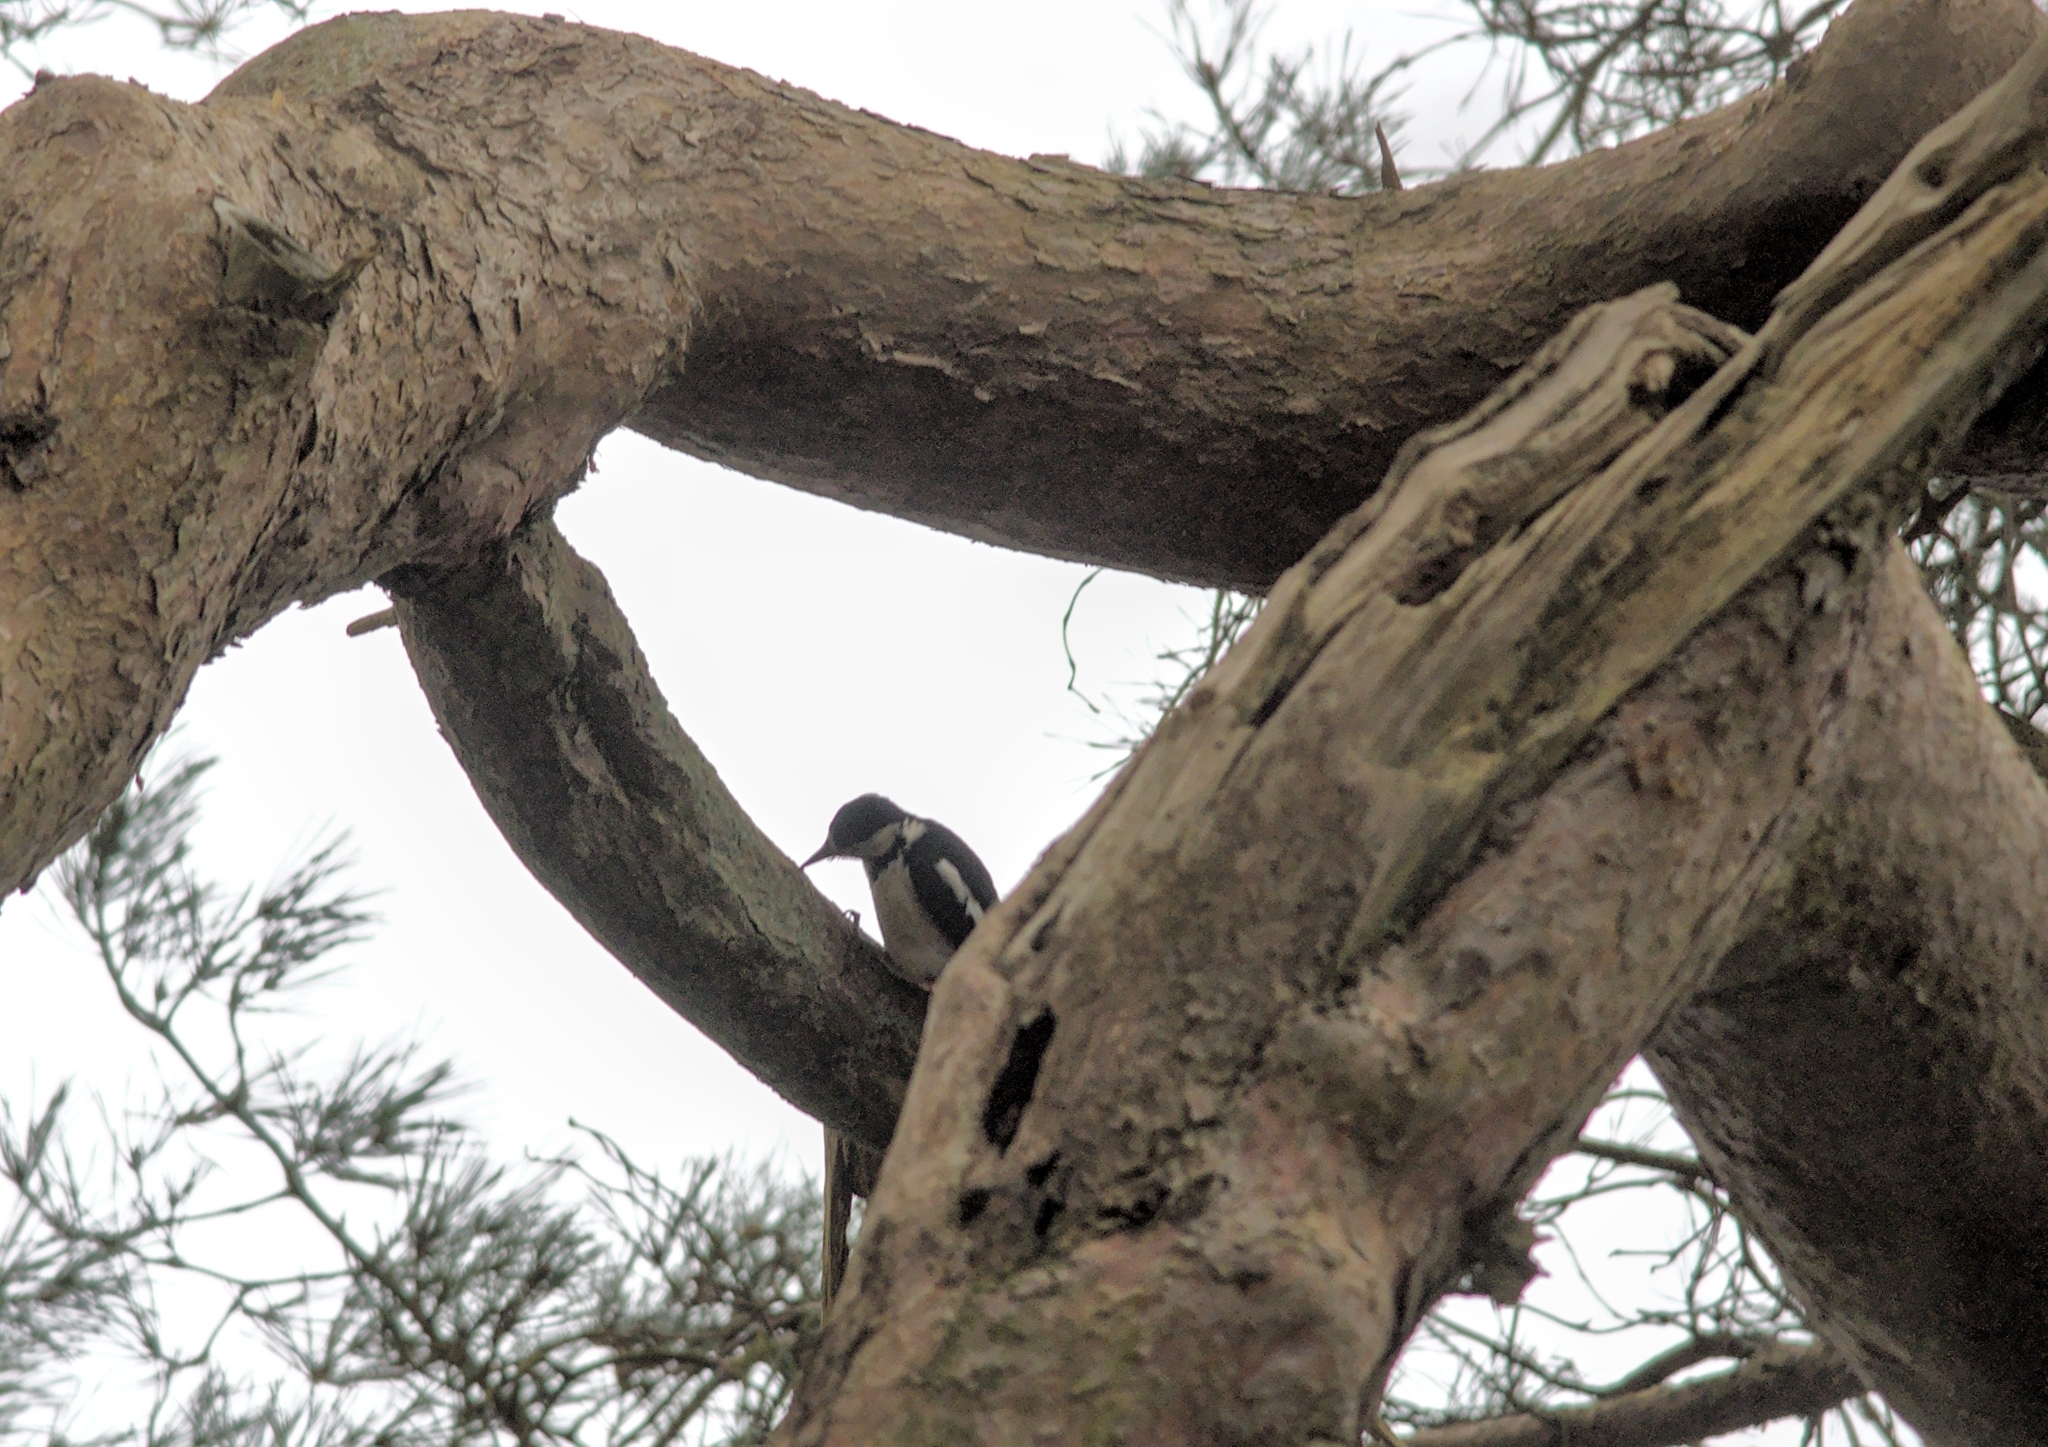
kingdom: Animalia
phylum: Chordata
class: Aves
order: Piciformes
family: Picidae
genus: Dendrocopos
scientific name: Dendrocopos major
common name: Great spotted woodpecker
